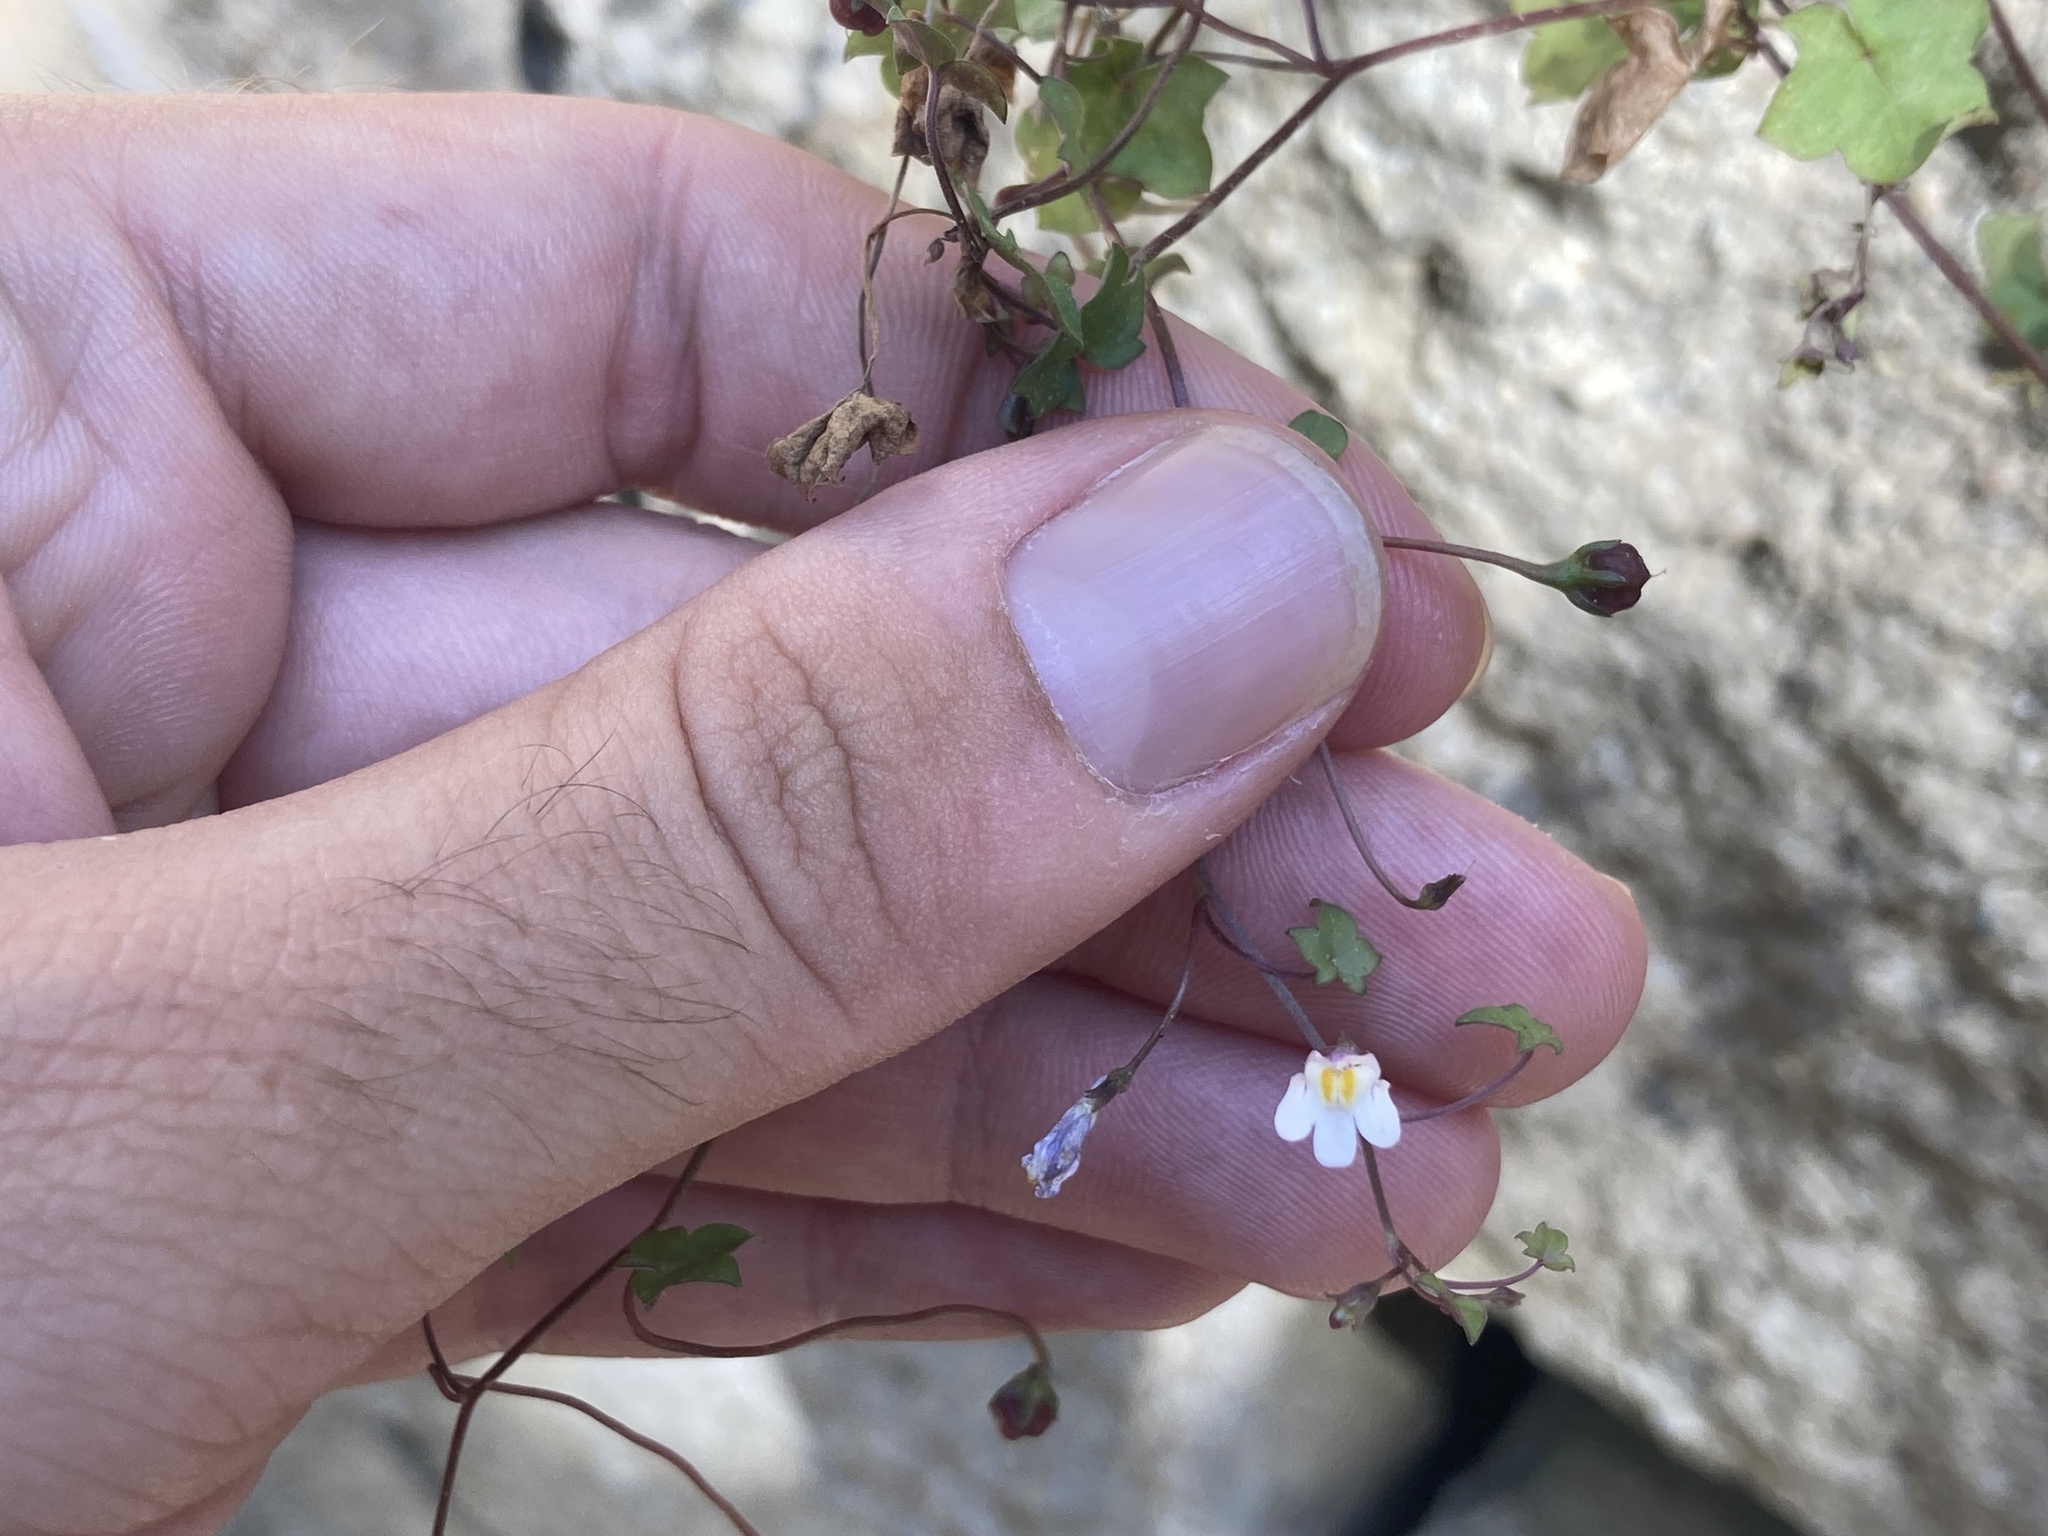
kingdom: Plantae
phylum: Tracheophyta
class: Magnoliopsida
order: Lamiales
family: Plantaginaceae
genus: Cymbalaria
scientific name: Cymbalaria muralis
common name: Ivy-leaved toadflax
